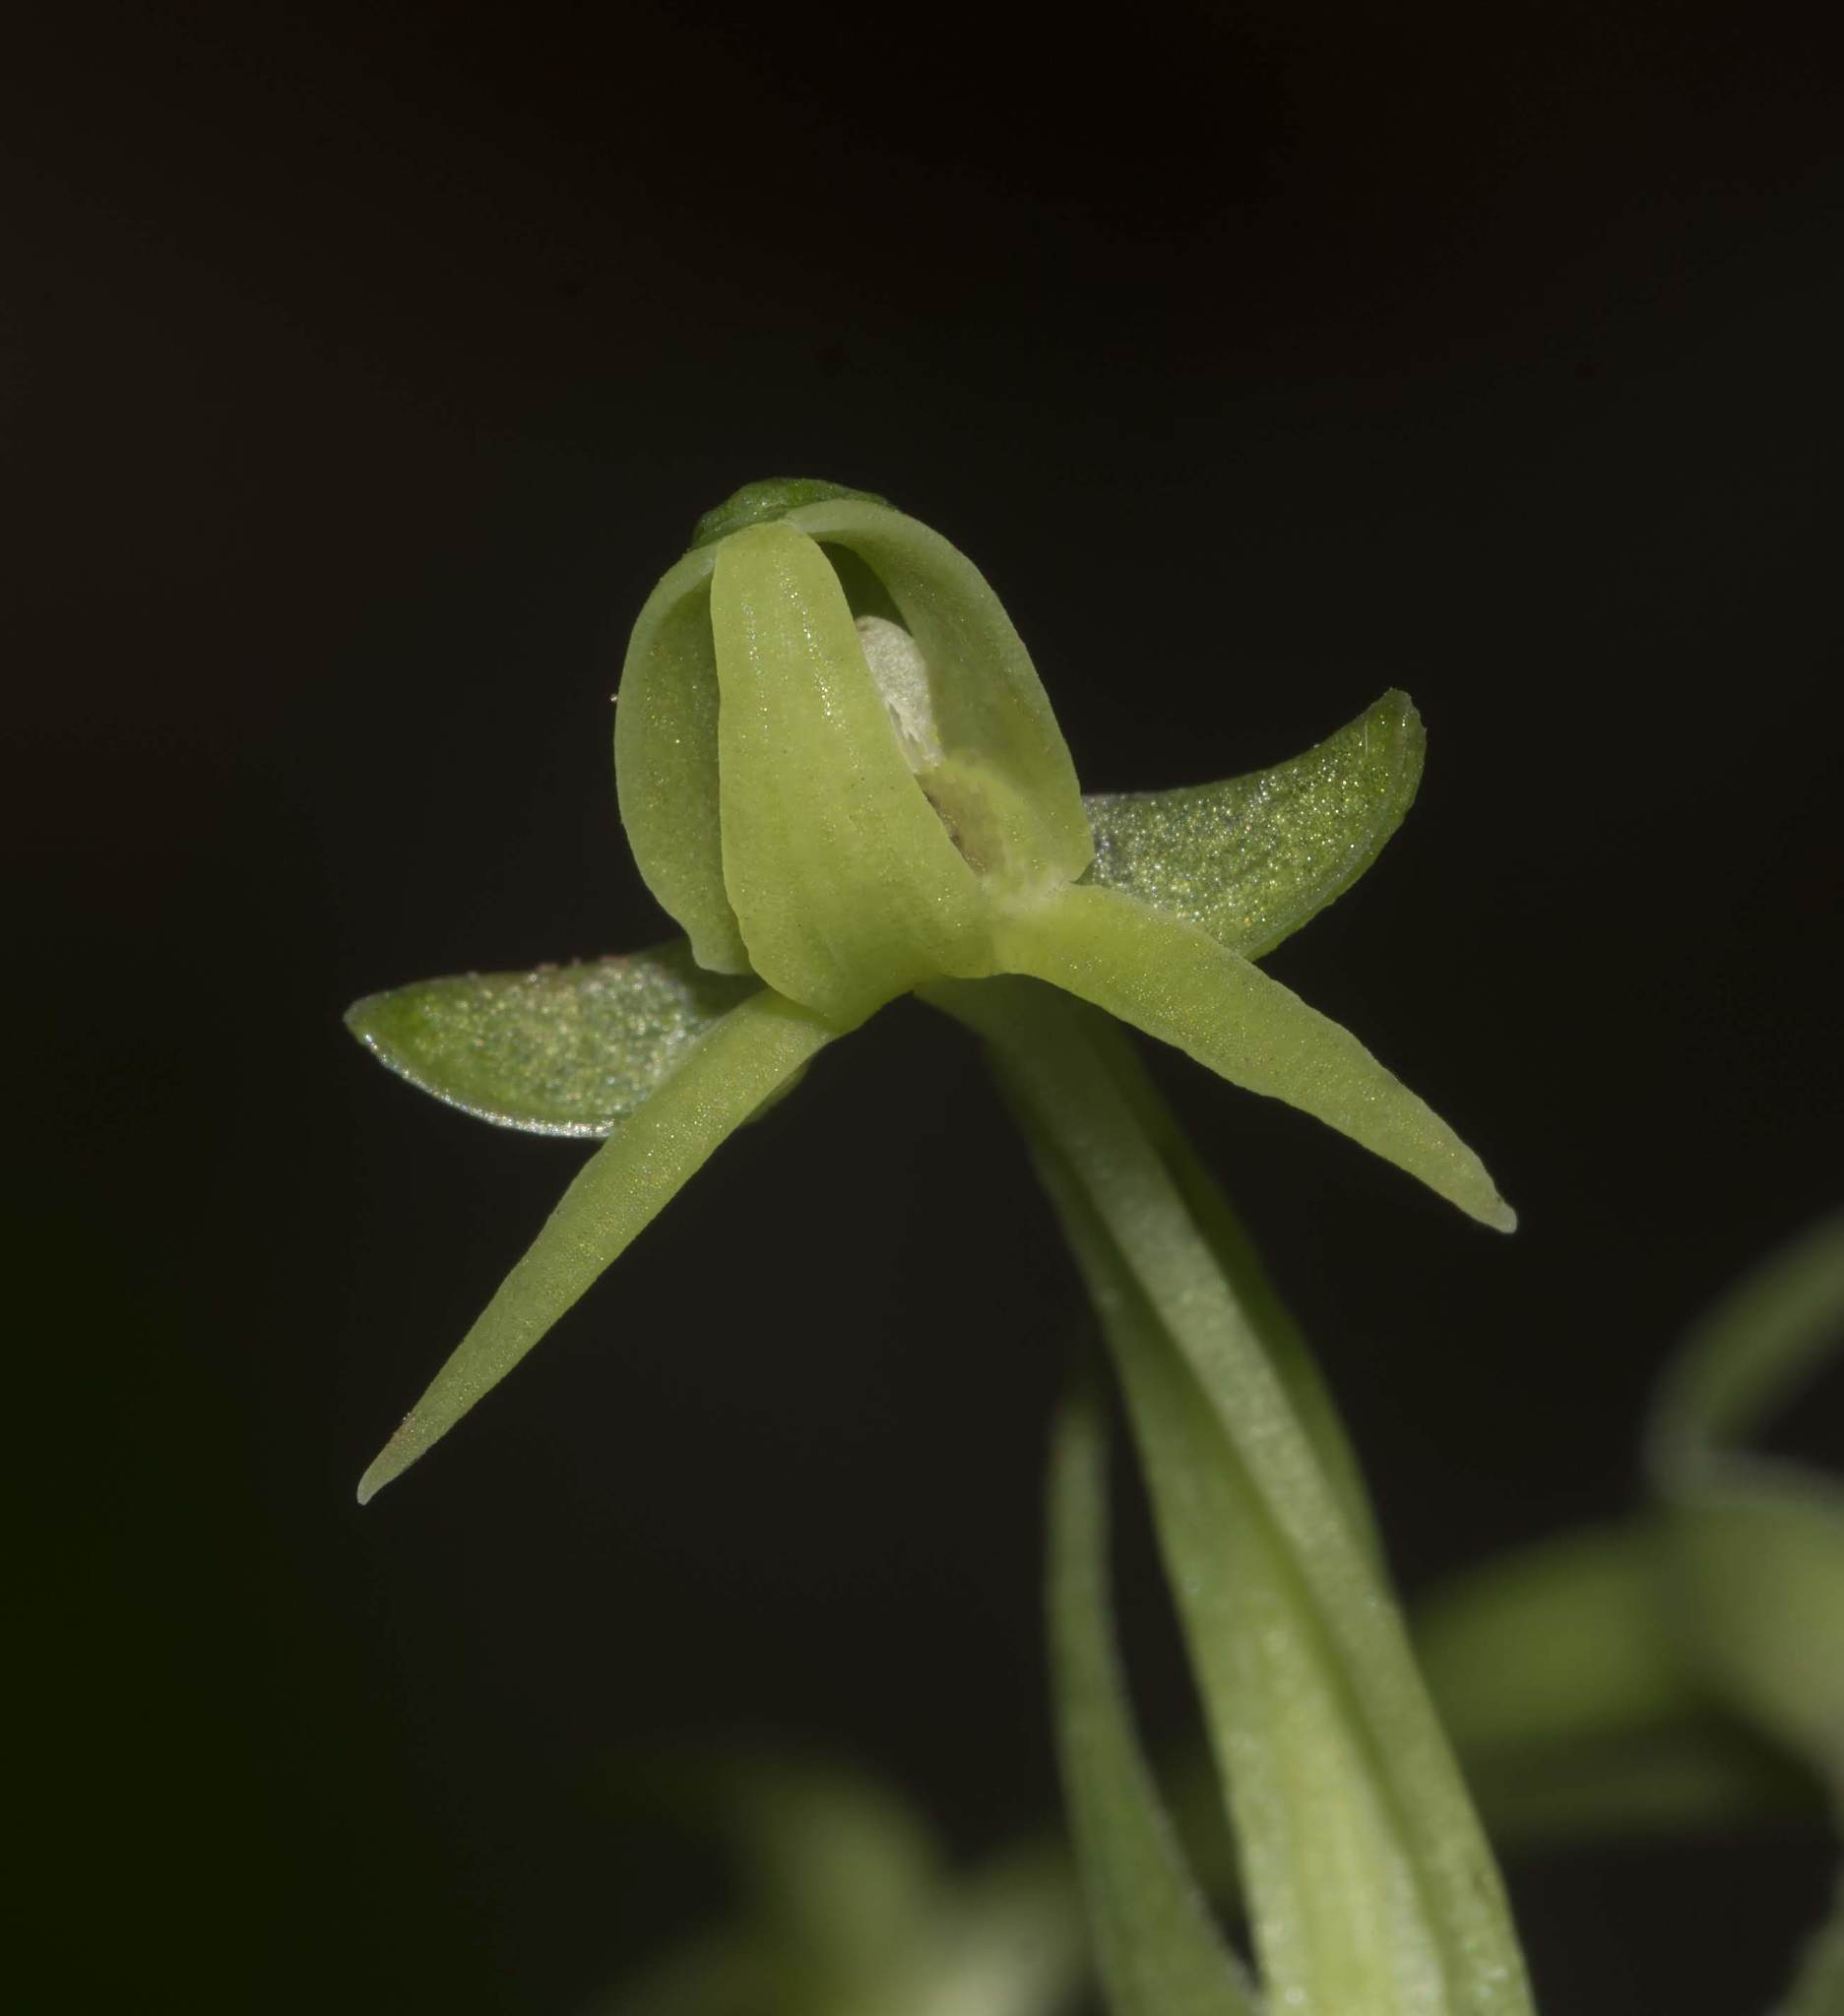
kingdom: Plantae
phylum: Tracheophyta
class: Liliopsida
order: Asparagales
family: Orchidaceae
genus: Habenaria
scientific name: Habenaria furcifera
